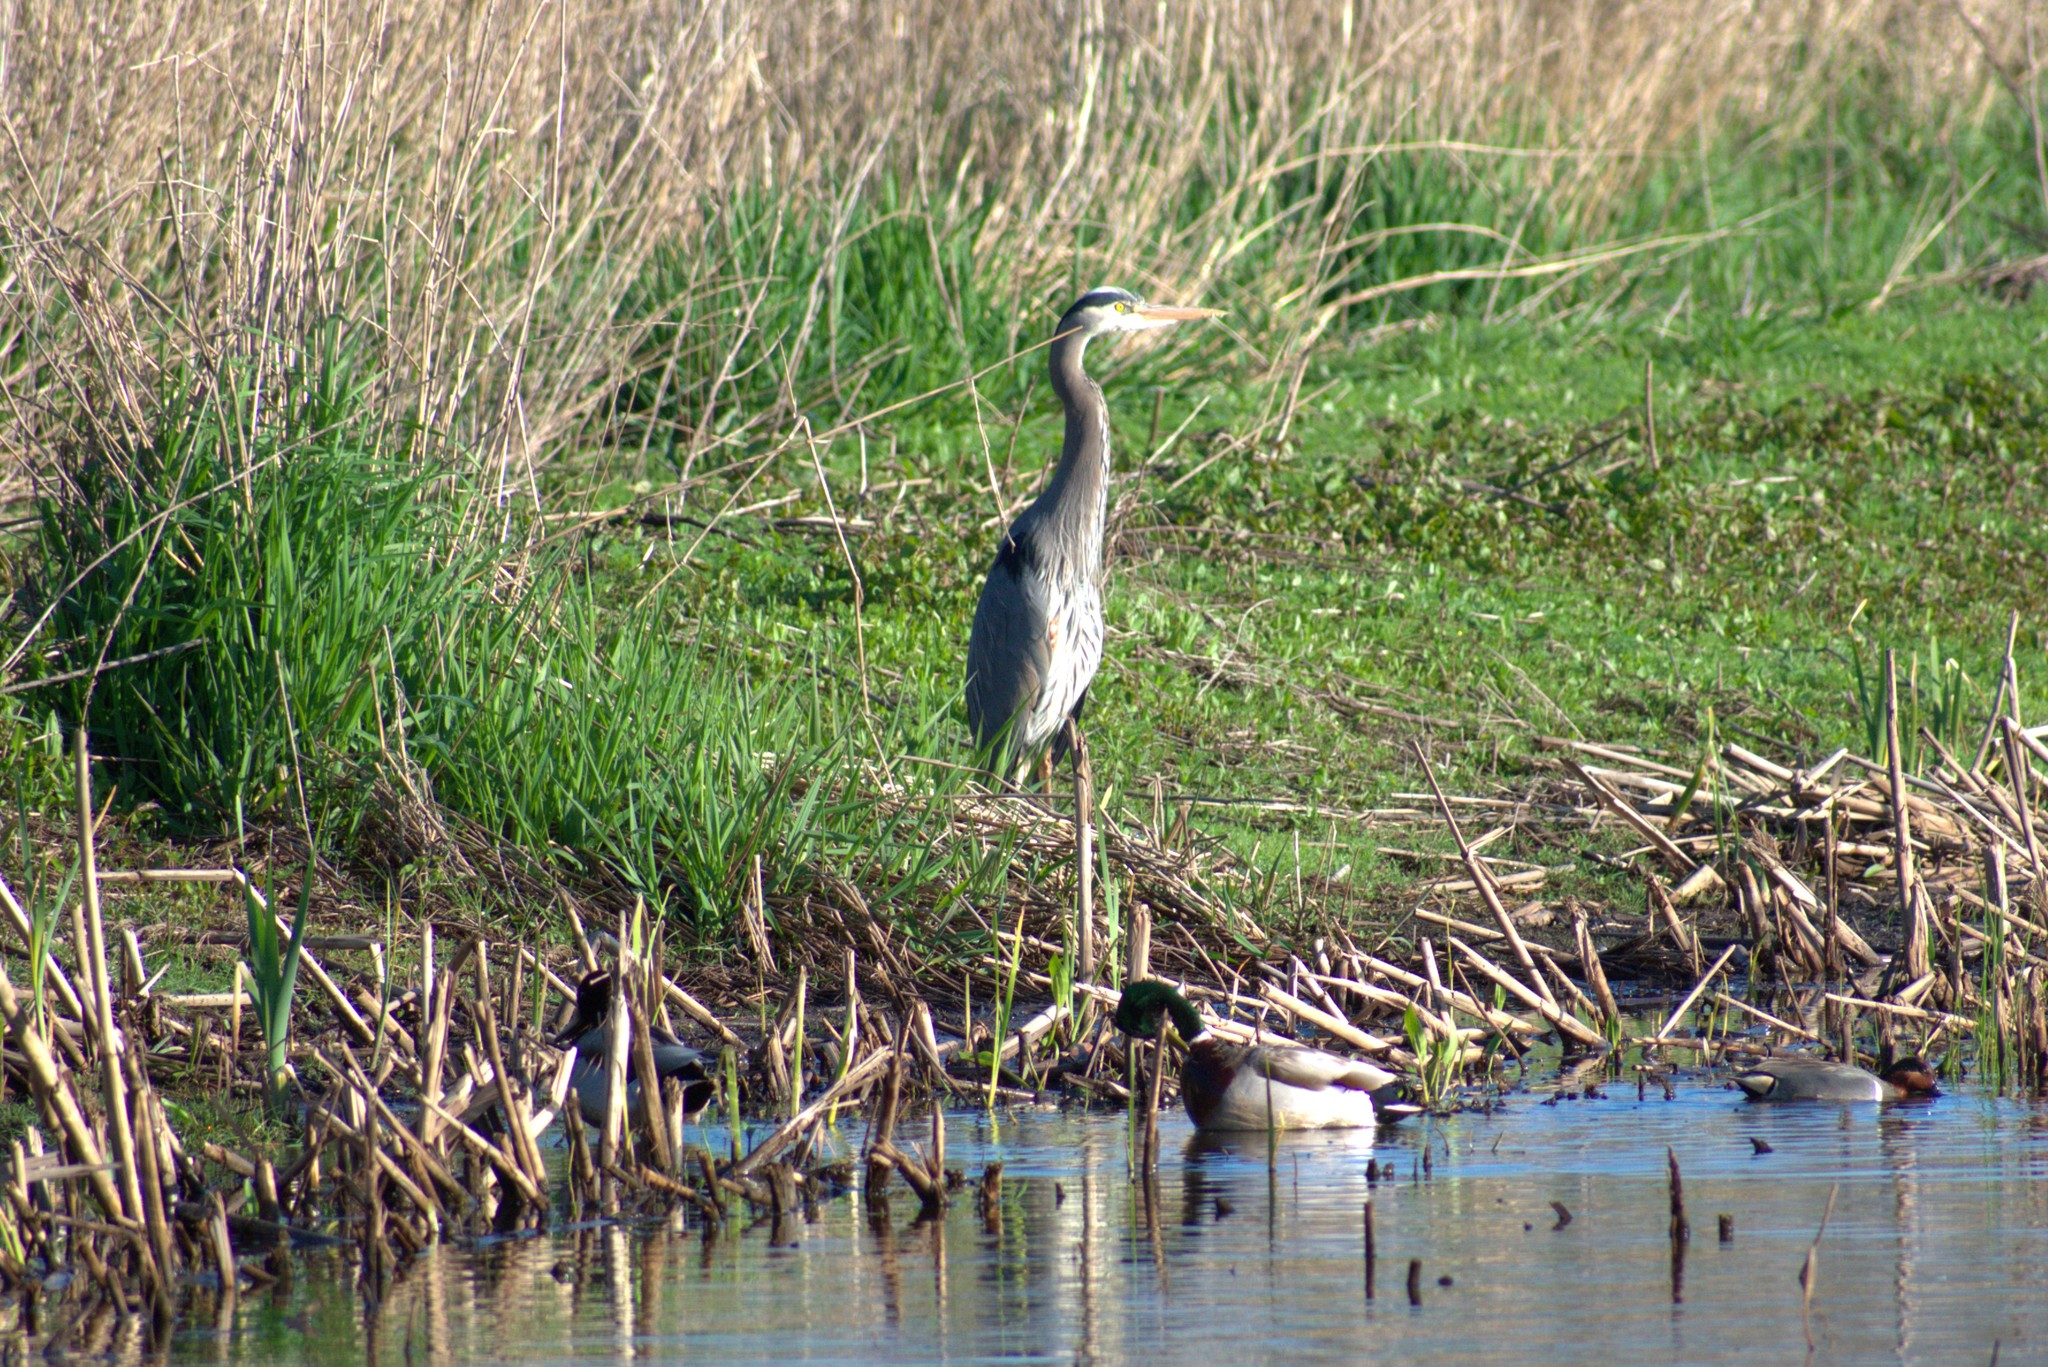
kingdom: Animalia
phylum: Chordata
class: Aves
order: Pelecaniformes
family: Ardeidae
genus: Ardea
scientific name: Ardea herodias
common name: Great blue heron
